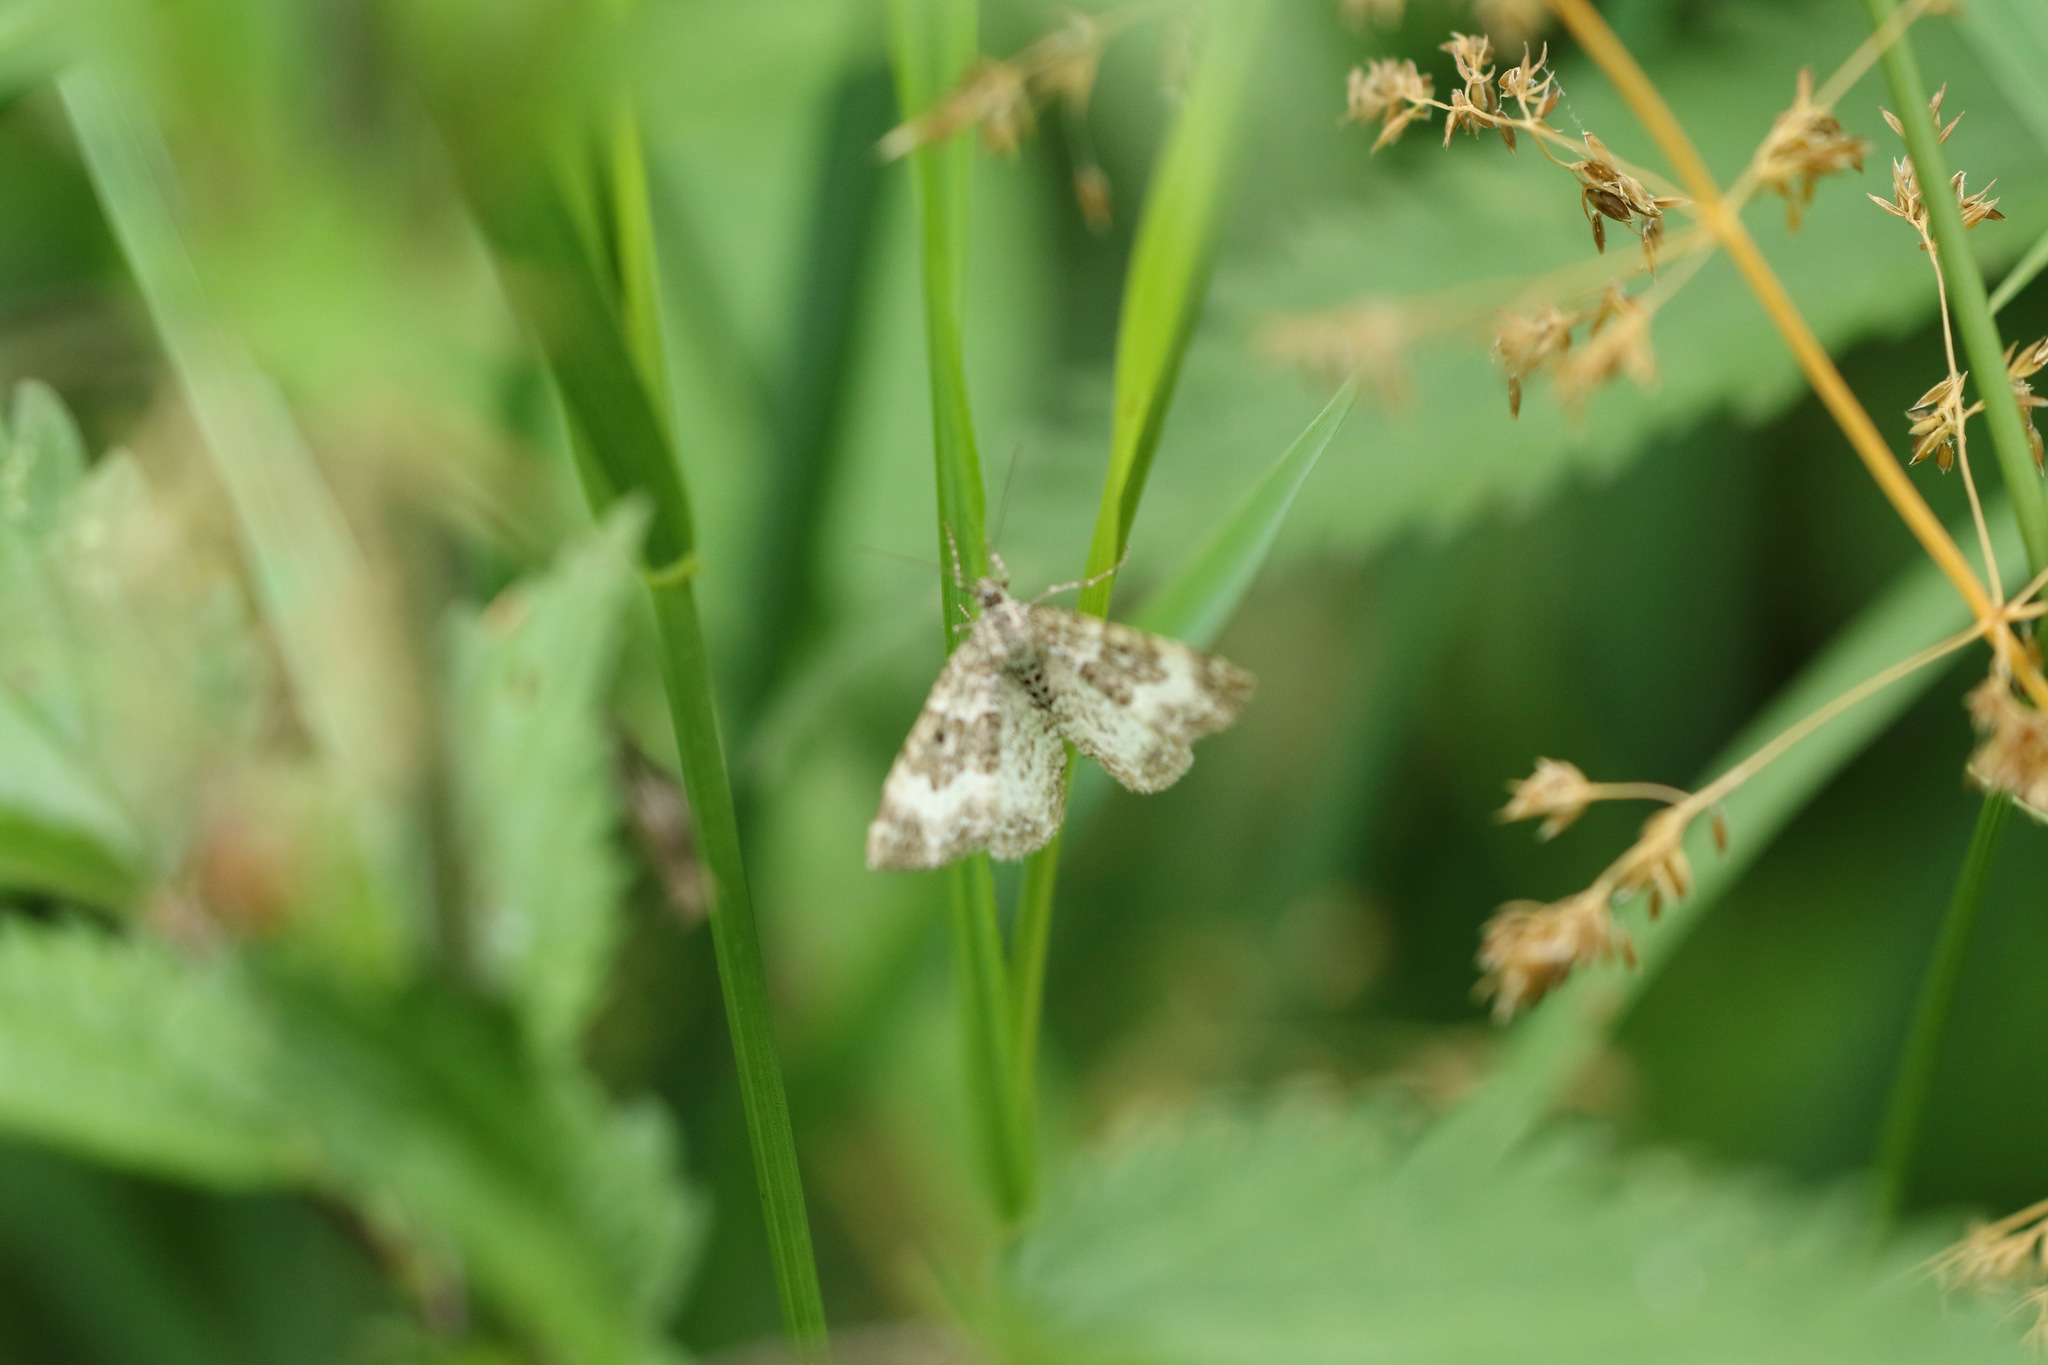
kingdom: Animalia
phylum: Arthropoda
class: Insecta
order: Lepidoptera
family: Geometridae
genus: Epirrhoe
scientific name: Epirrhoe alternata
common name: Common carpet
